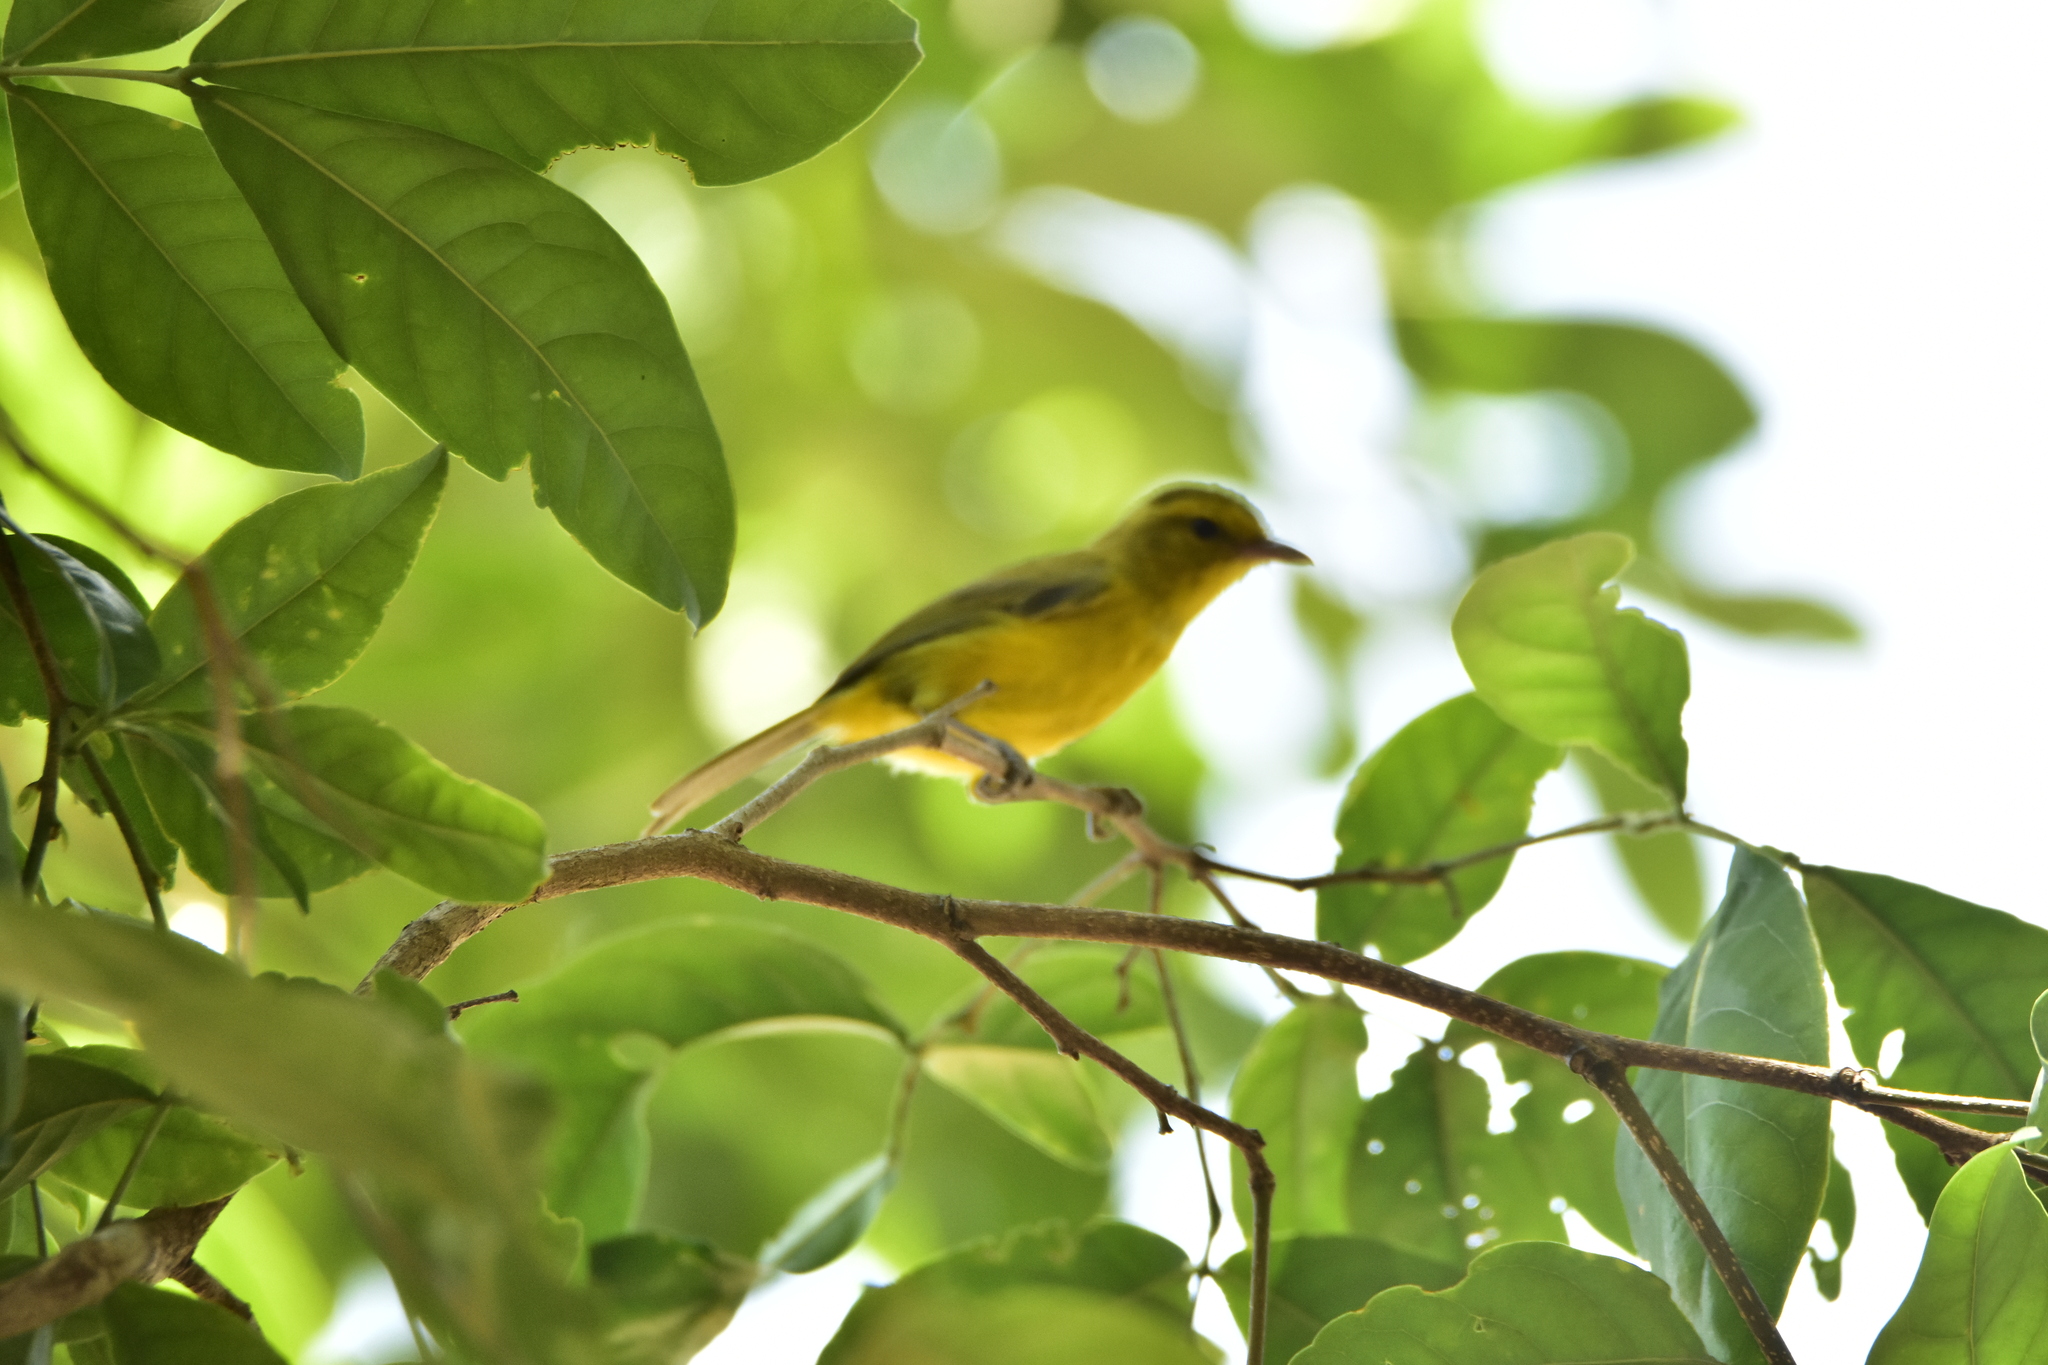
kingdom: Animalia
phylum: Chordata
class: Aves
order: Passeriformes
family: Vireonidae
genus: Vireo
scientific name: Vireo hypochryseus
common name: Golden vireo
